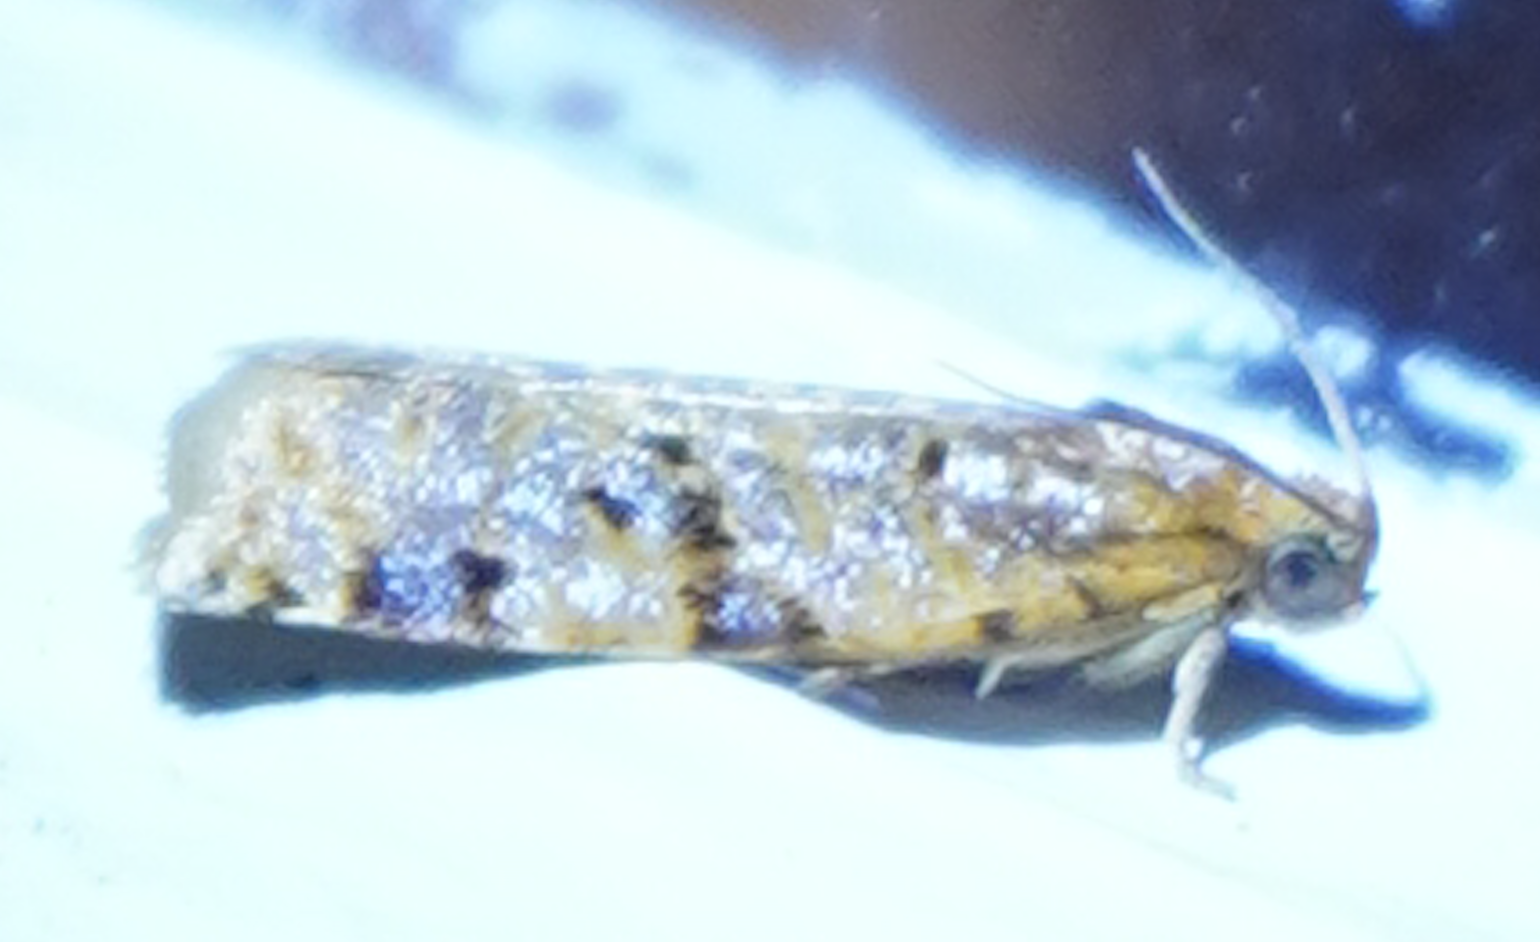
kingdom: Animalia
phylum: Arthropoda
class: Insecta
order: Lepidoptera
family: Tortricidae
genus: Archips
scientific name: Archips cerasivorana
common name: Uglynest caterpillar
